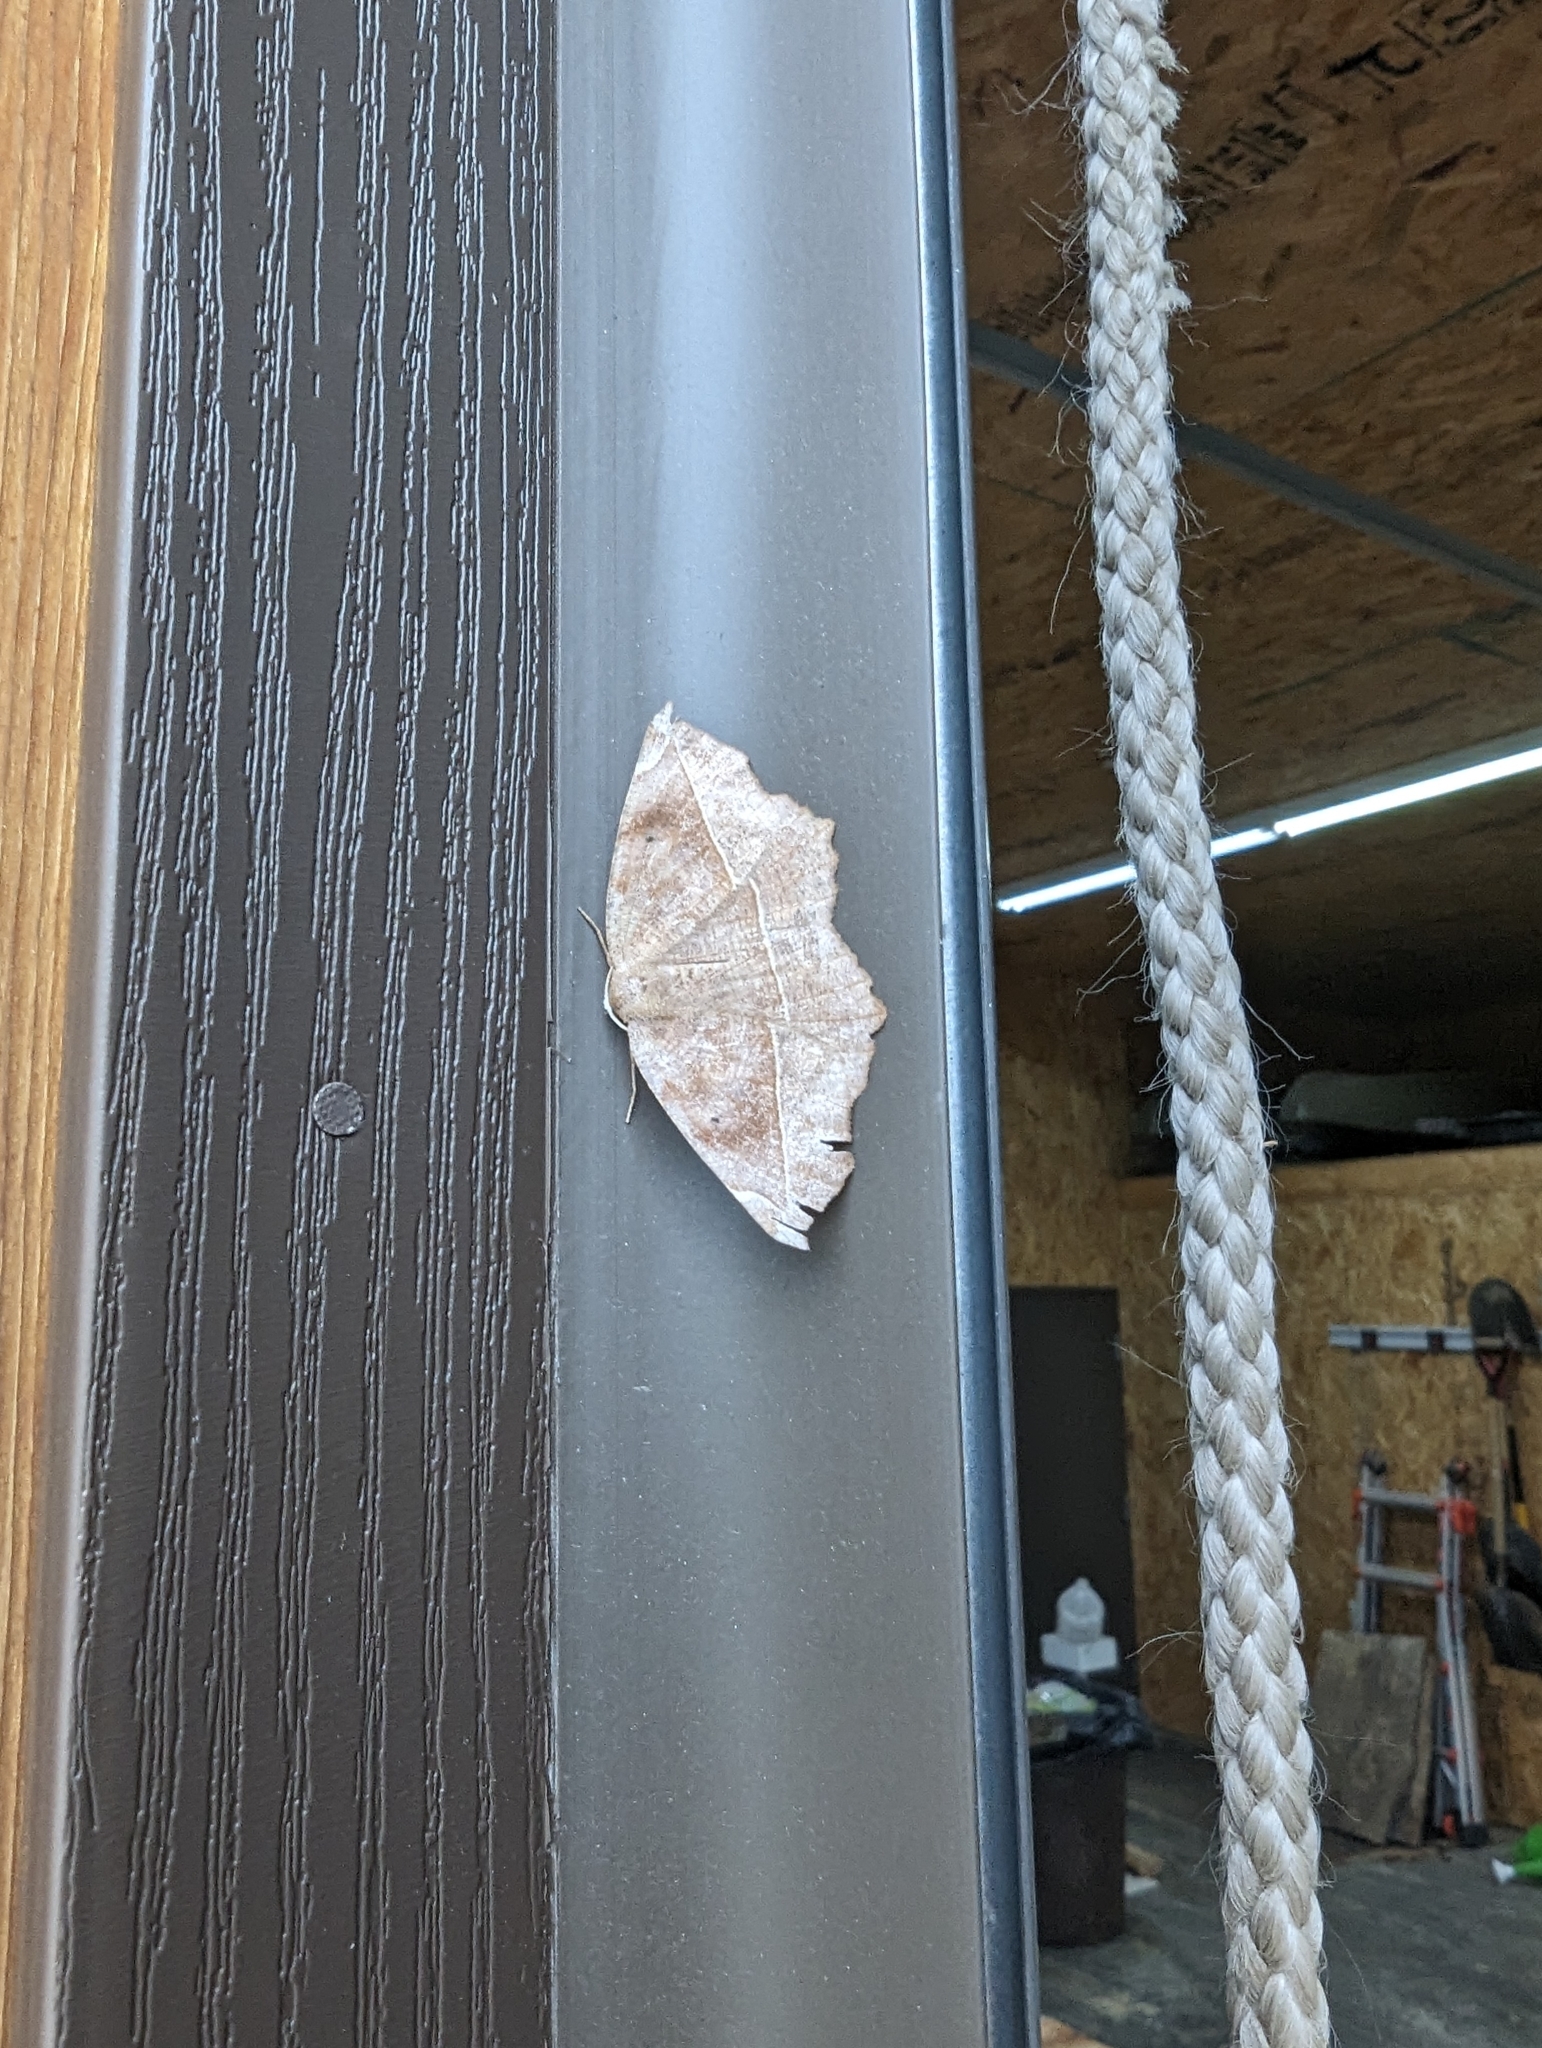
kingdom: Animalia
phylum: Arthropoda
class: Insecta
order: Lepidoptera
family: Geometridae
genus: Eutrapela
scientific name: Eutrapela clemataria
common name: Curved-toothed geometer
